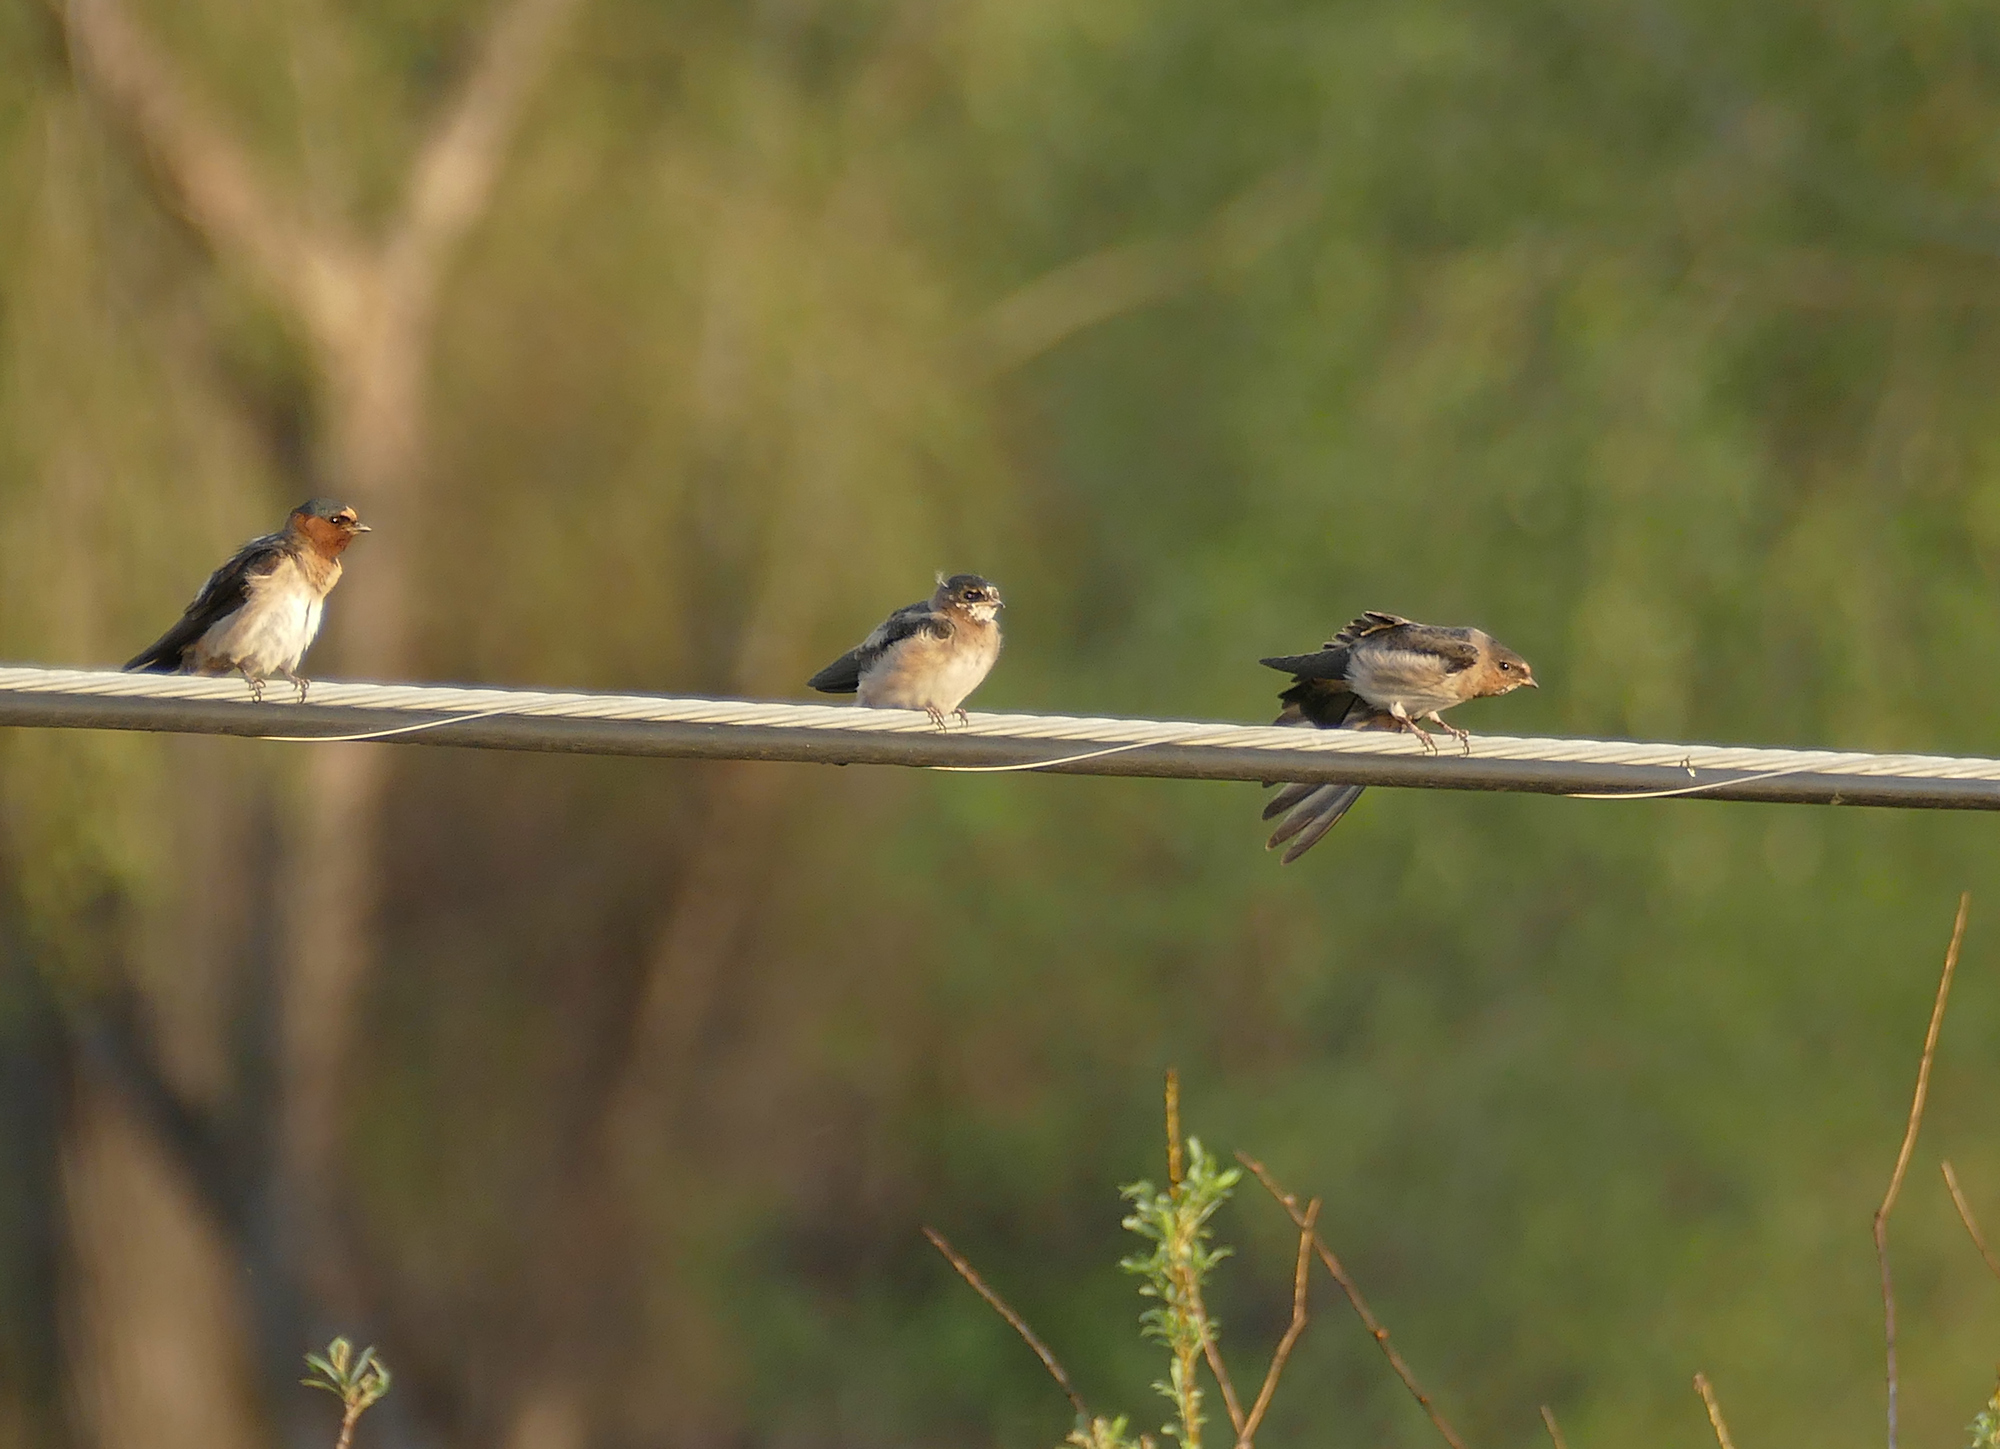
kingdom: Animalia
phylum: Chordata
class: Aves
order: Passeriformes
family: Hirundinidae
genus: Petrochelidon
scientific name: Petrochelidon pyrrhonota
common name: American cliff swallow
